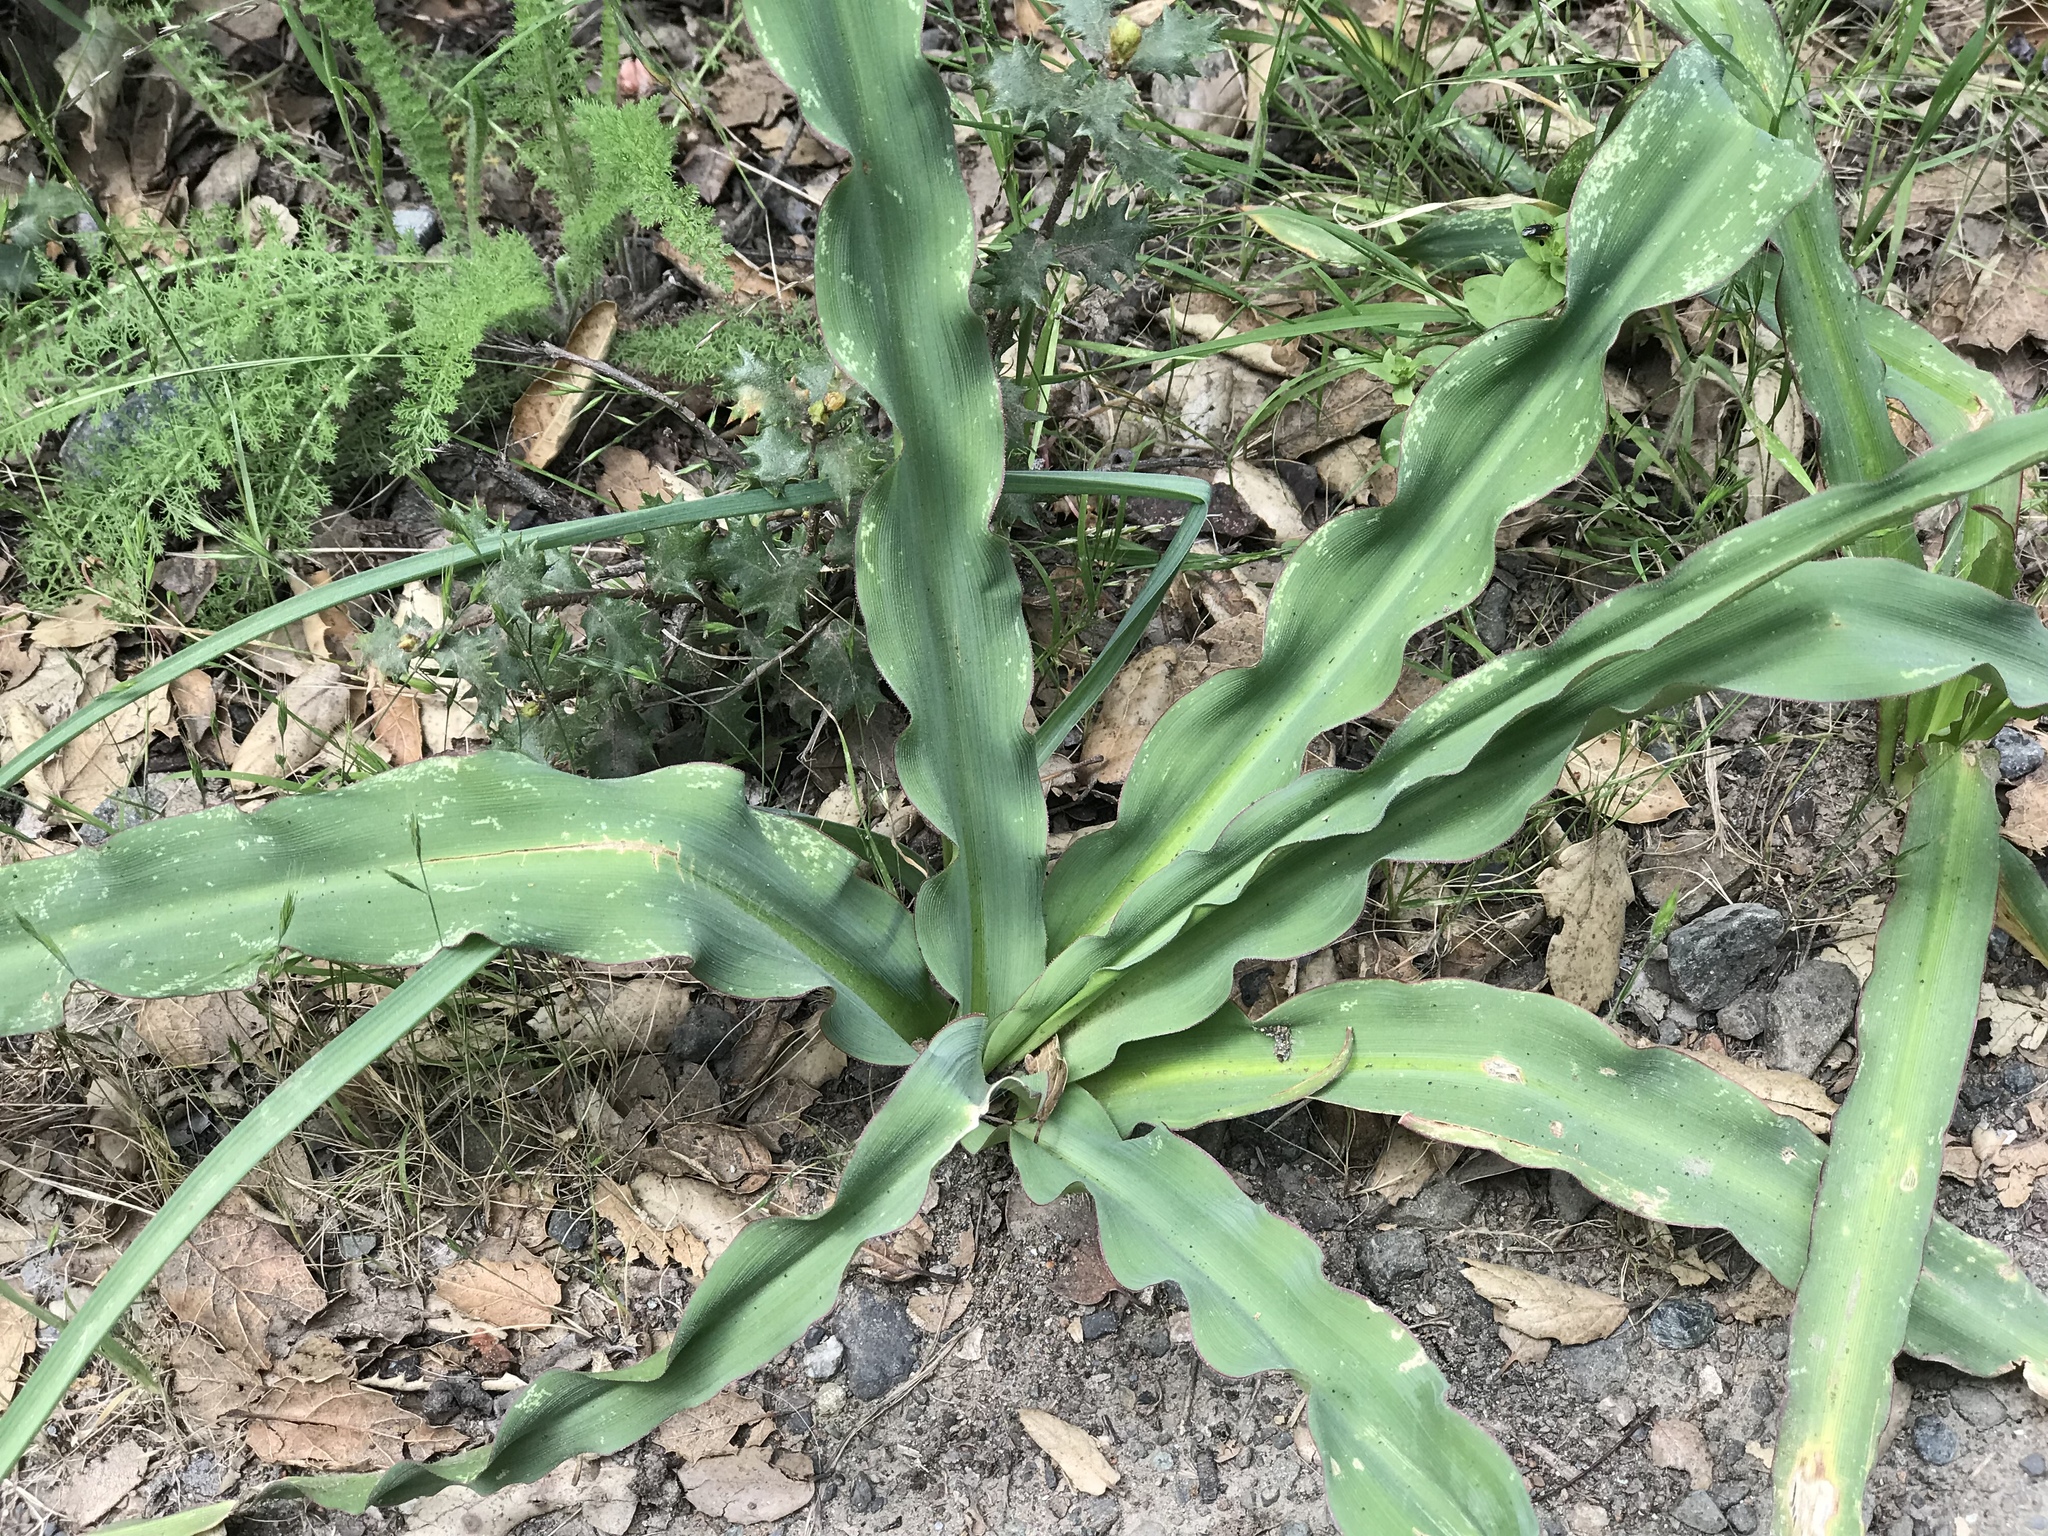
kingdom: Plantae
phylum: Tracheophyta
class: Liliopsida
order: Asparagales
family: Asparagaceae
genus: Chlorogalum
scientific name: Chlorogalum pomeridianum
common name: Amole
